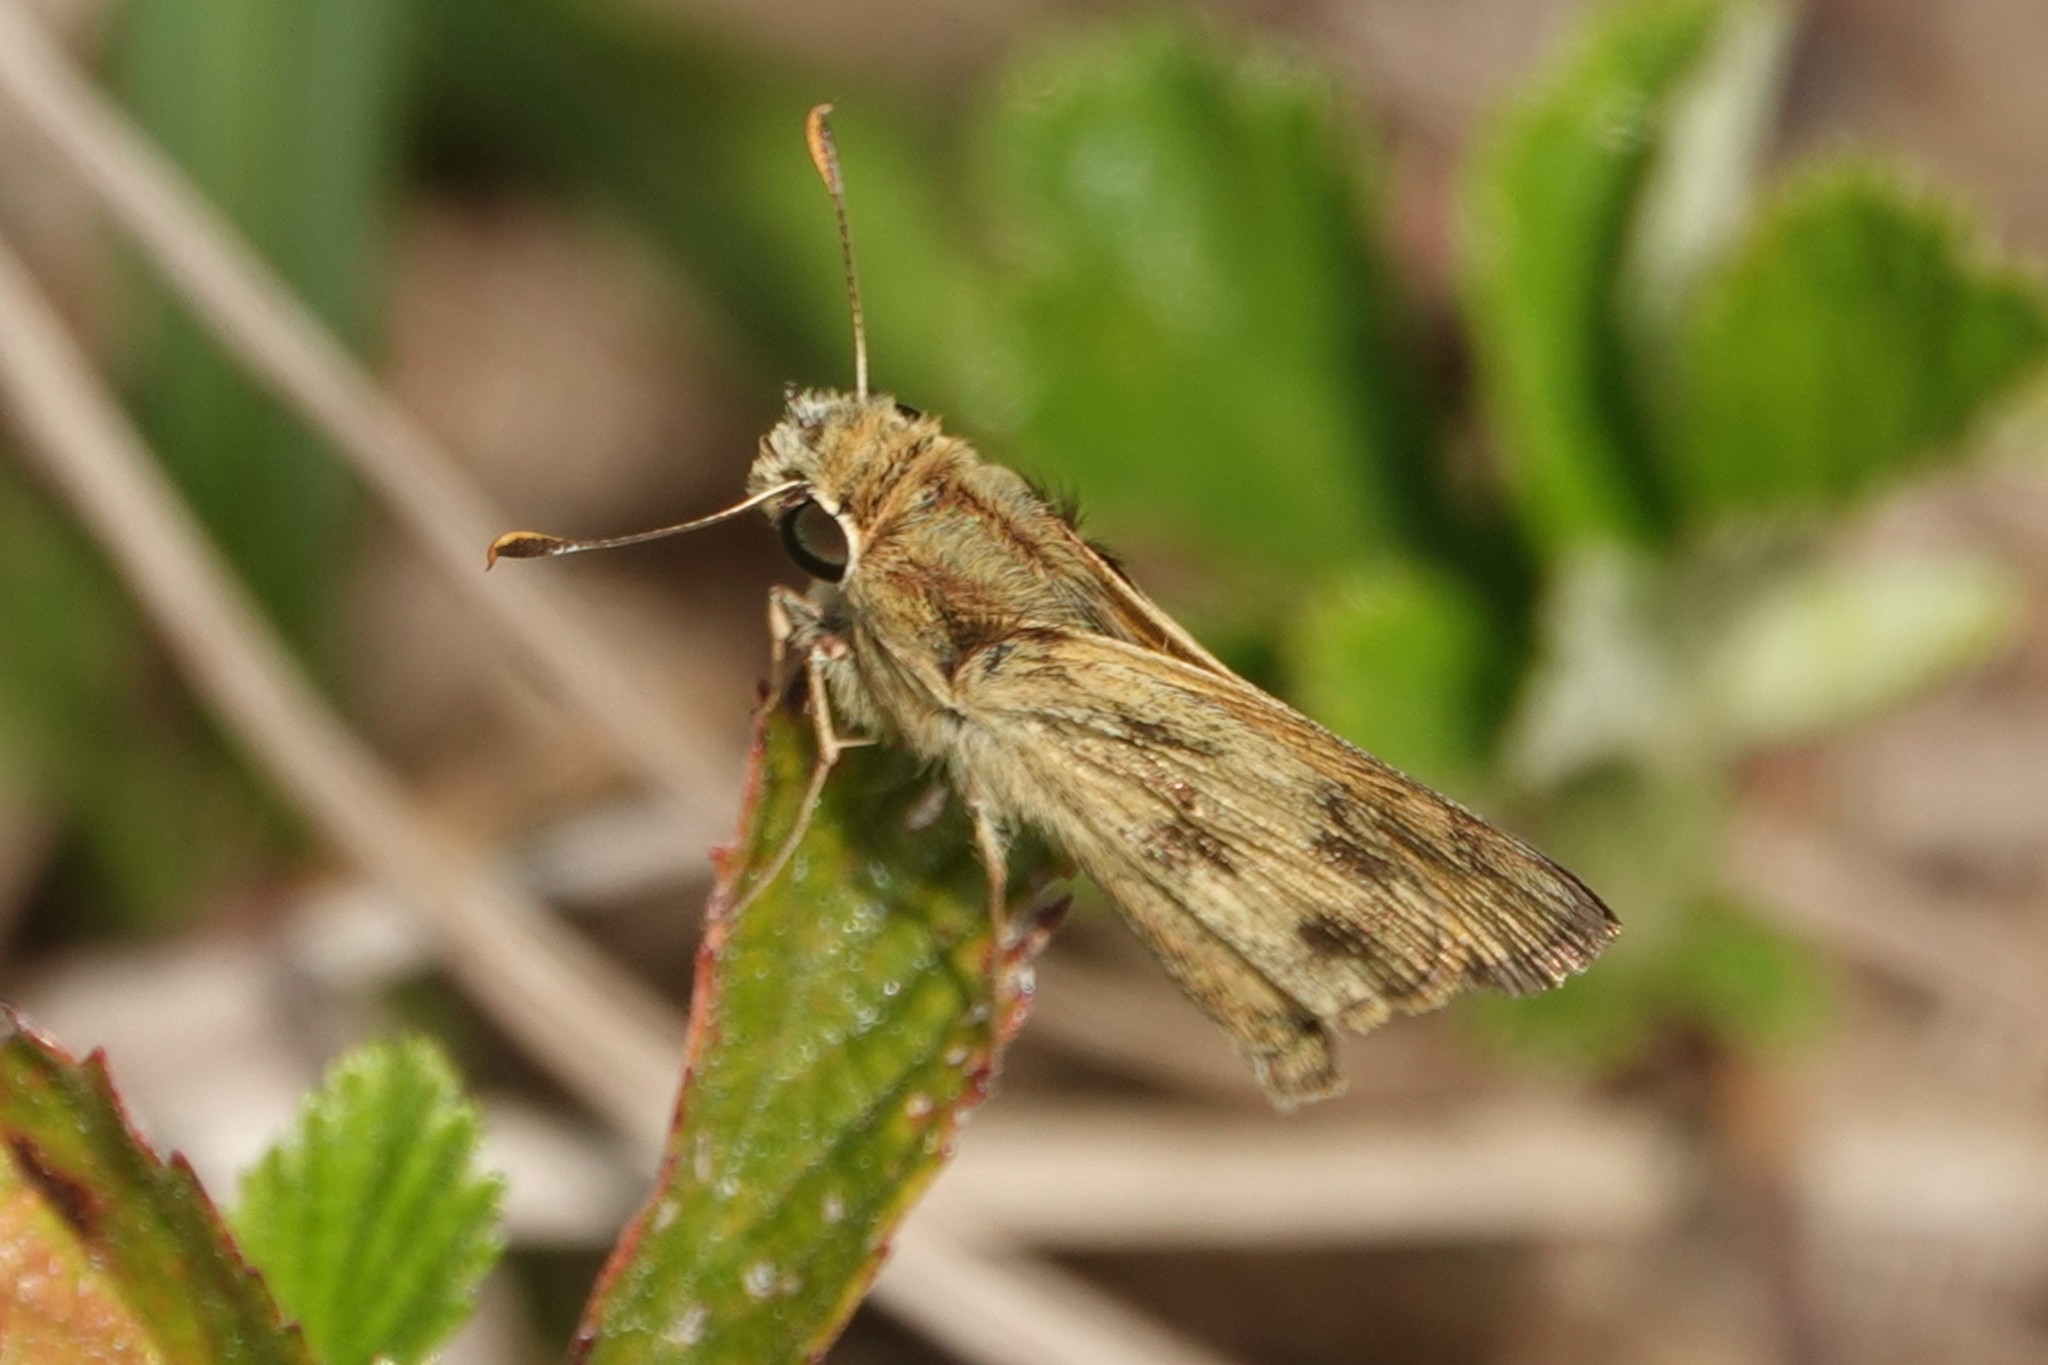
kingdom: Animalia
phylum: Arthropoda
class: Insecta
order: Lepidoptera
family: Hesperiidae
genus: Polites
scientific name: Polites vibex
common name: Whirlabout
